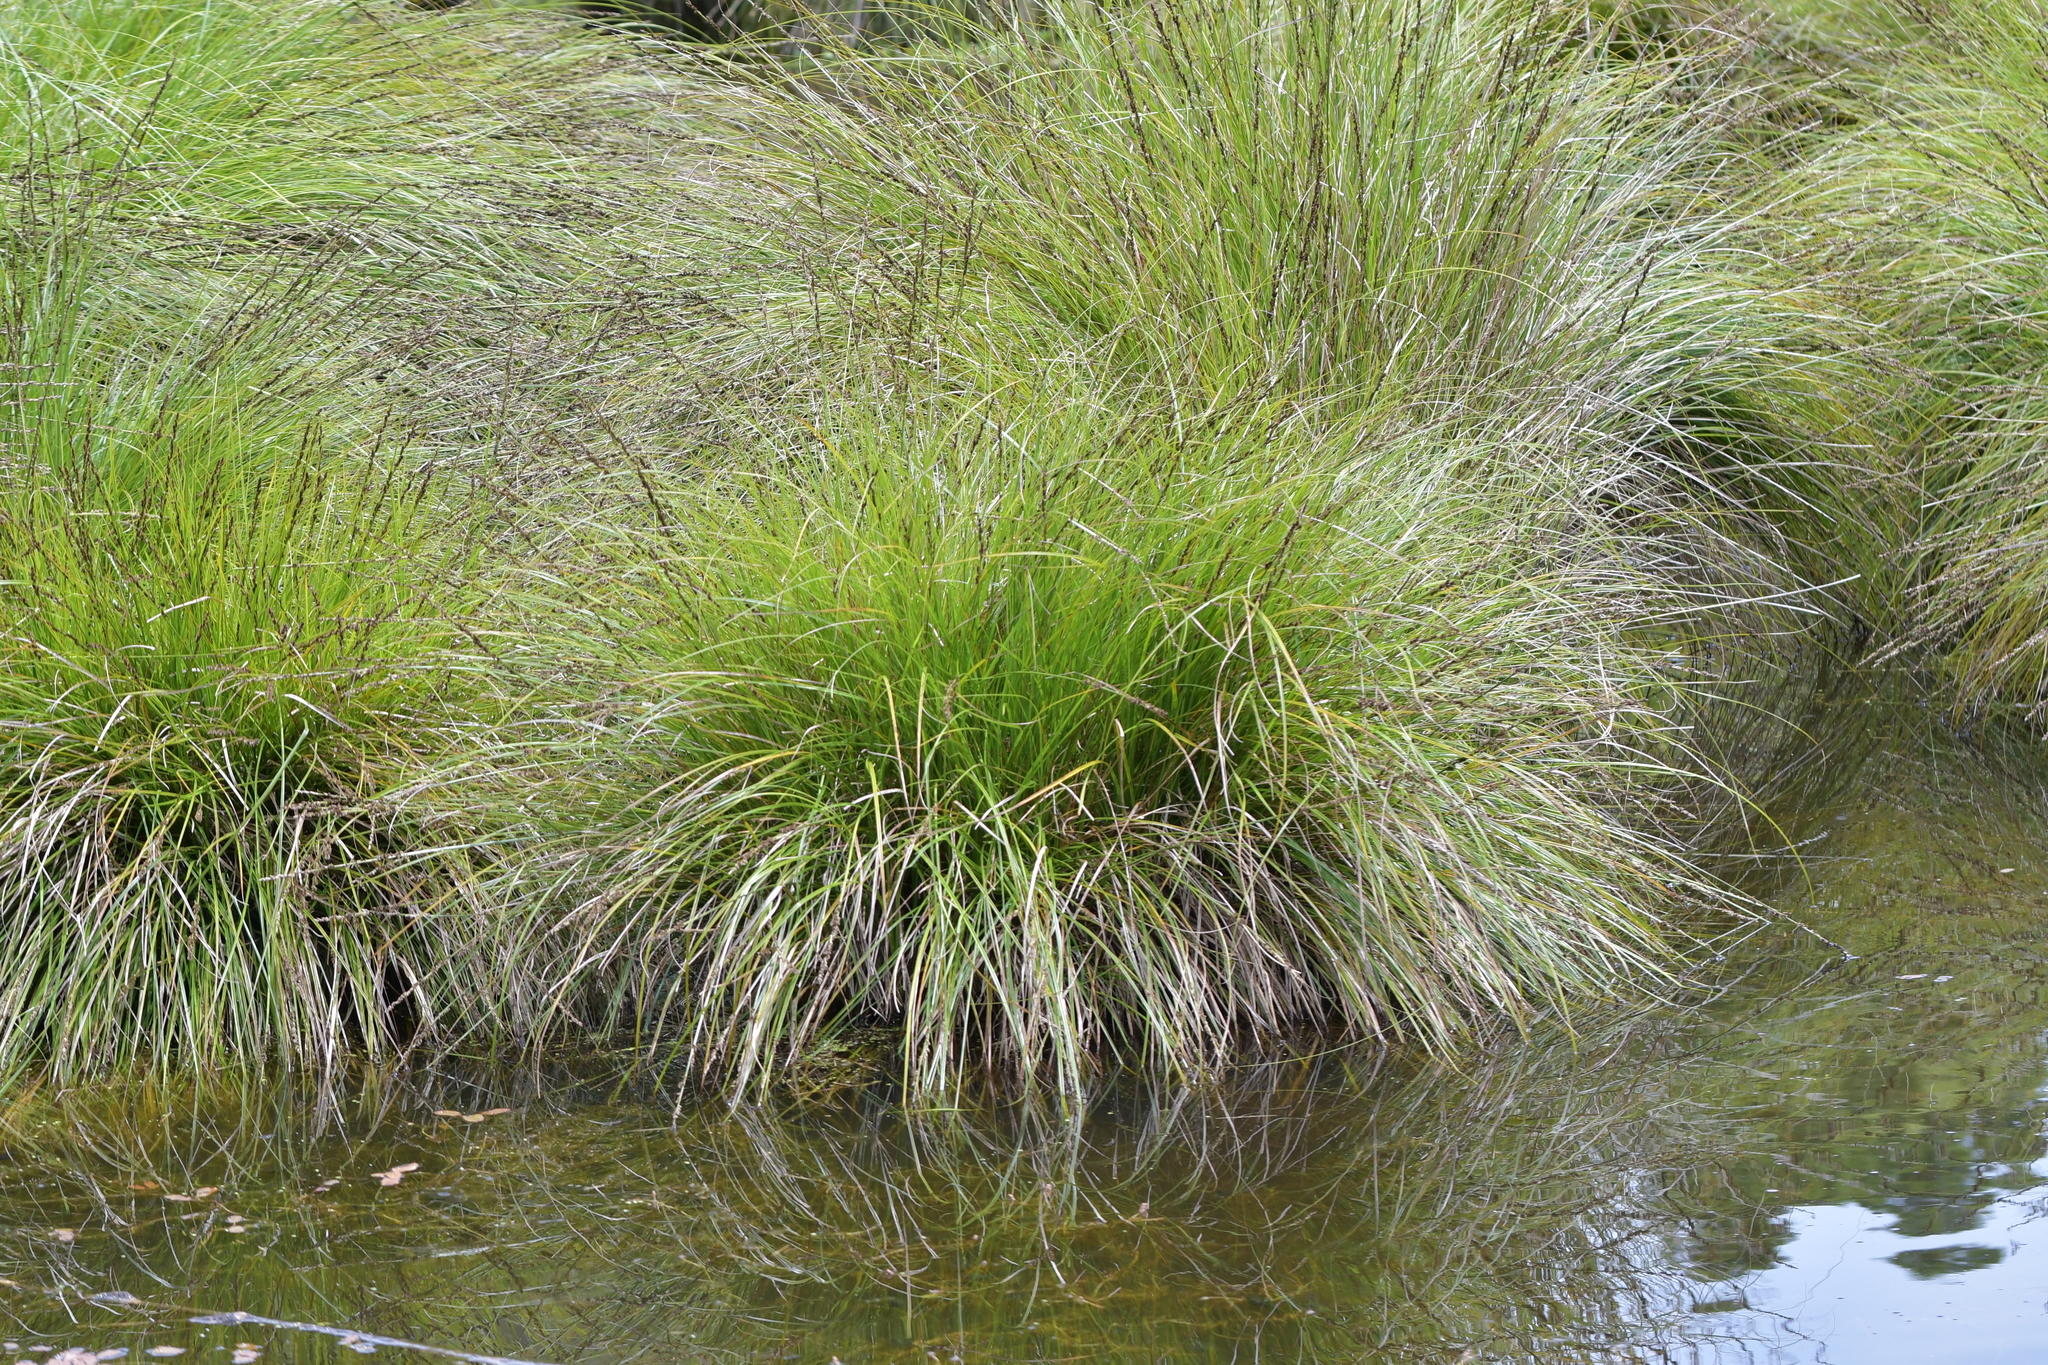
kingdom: Plantae
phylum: Tracheophyta
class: Liliopsida
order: Poales
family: Cyperaceae
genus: Carex
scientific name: Carex secta
